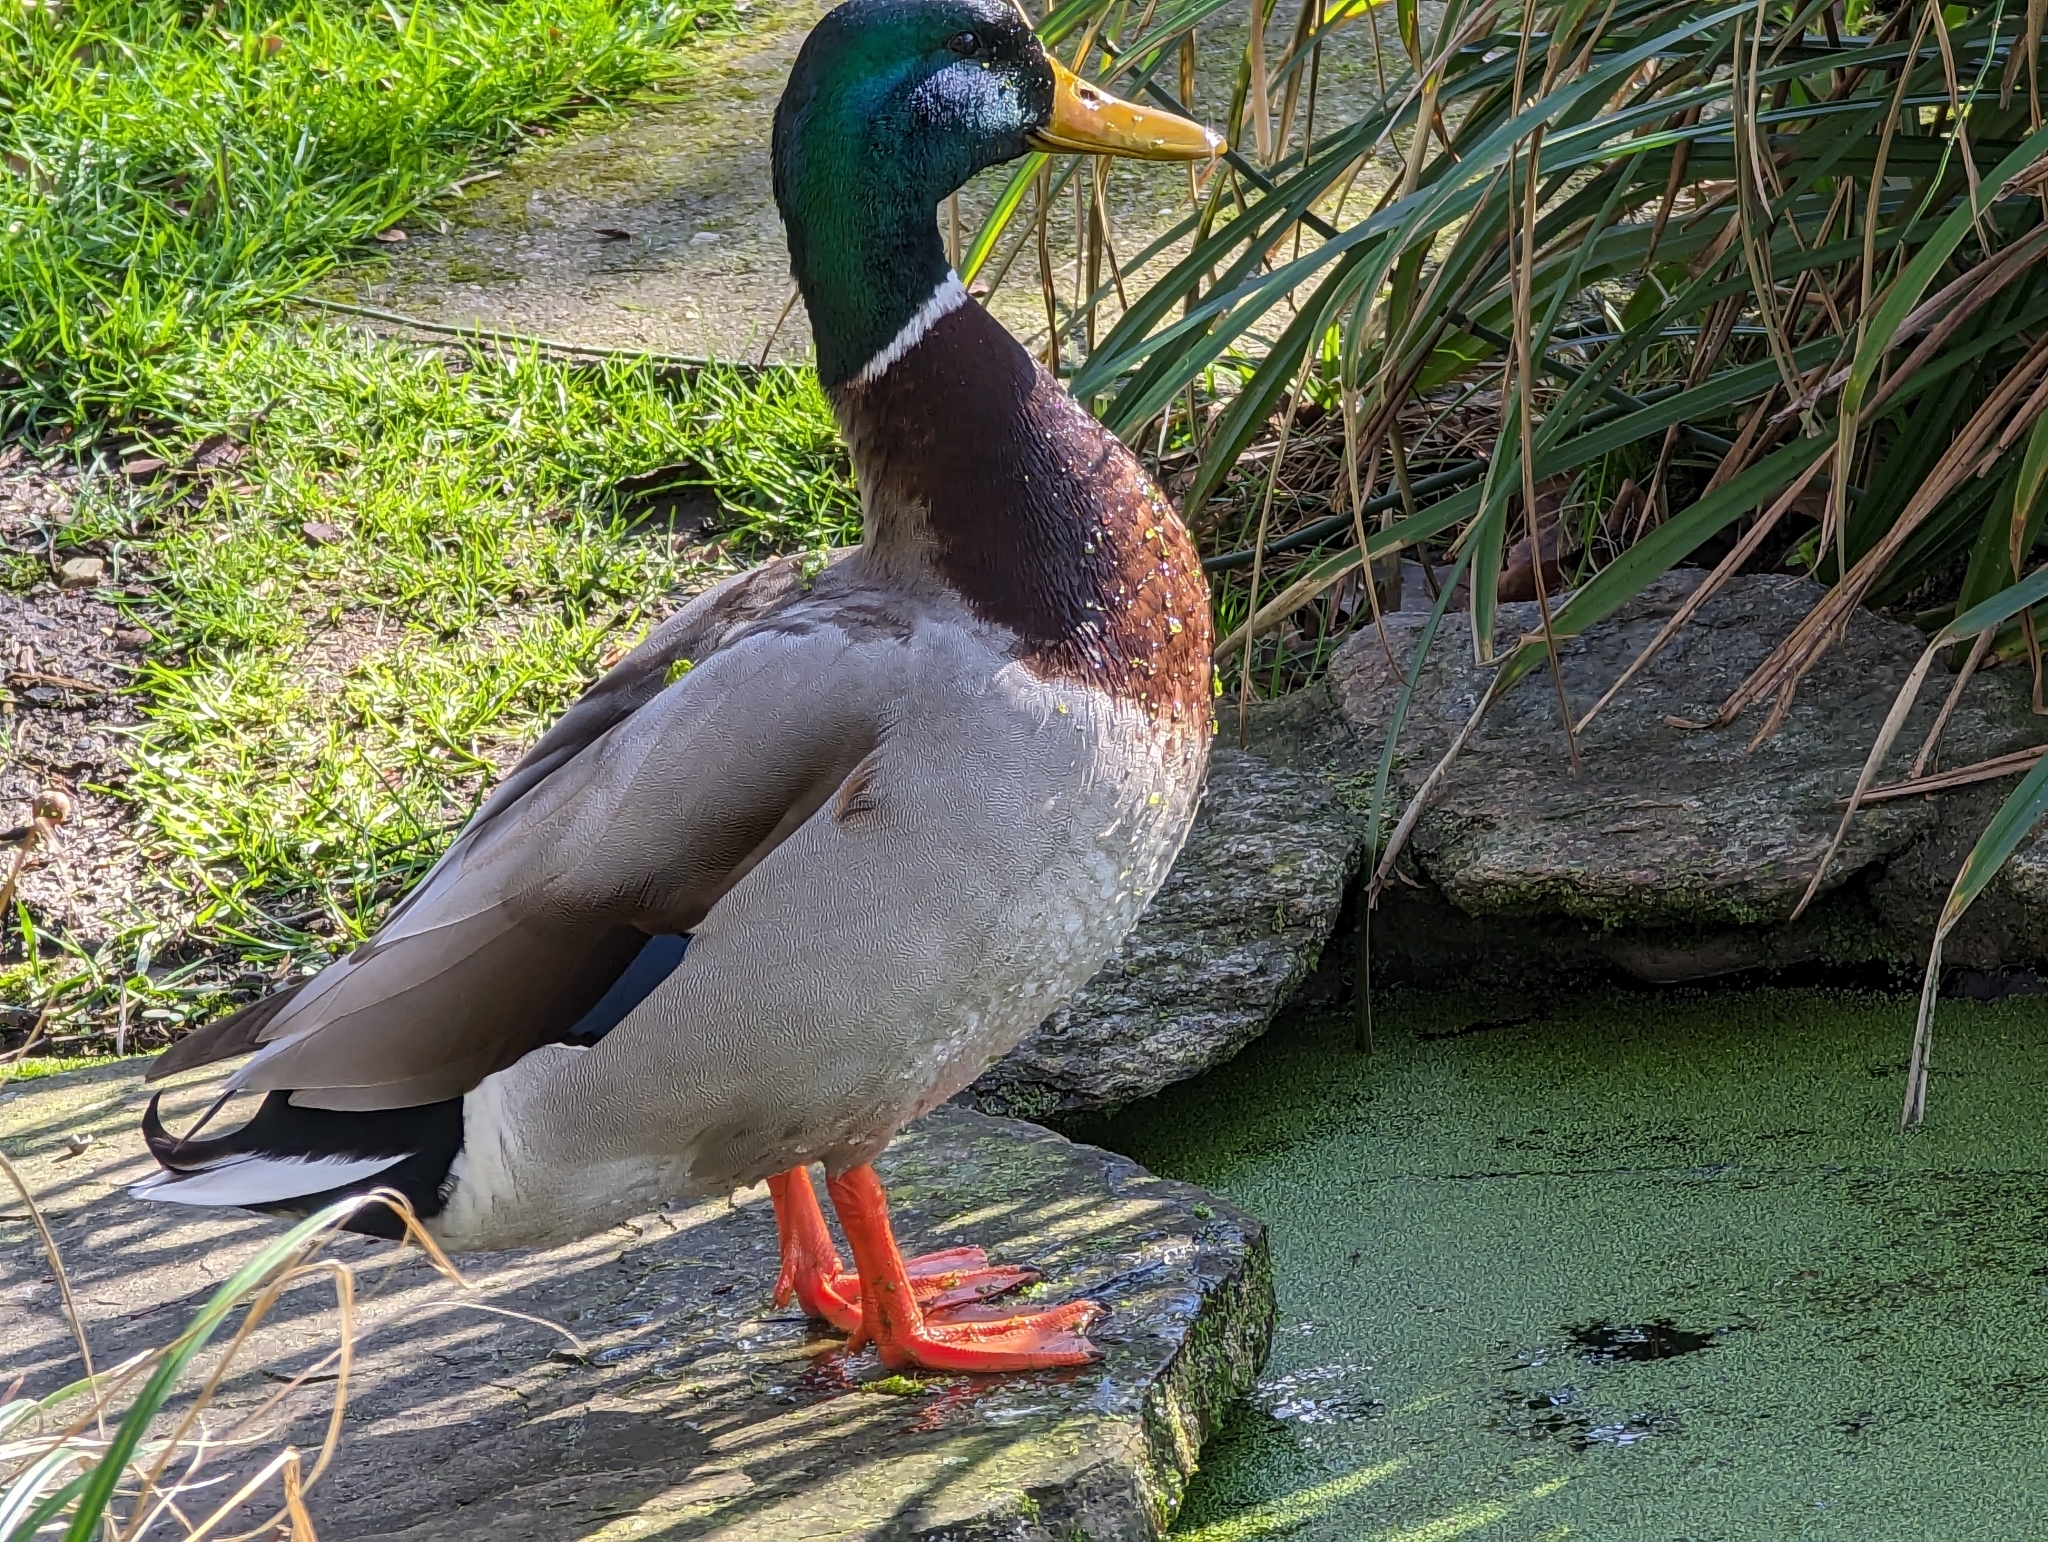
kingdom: Animalia
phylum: Chordata
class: Aves
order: Anseriformes
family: Anatidae
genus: Anas
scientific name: Anas platyrhynchos
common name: Mallard
